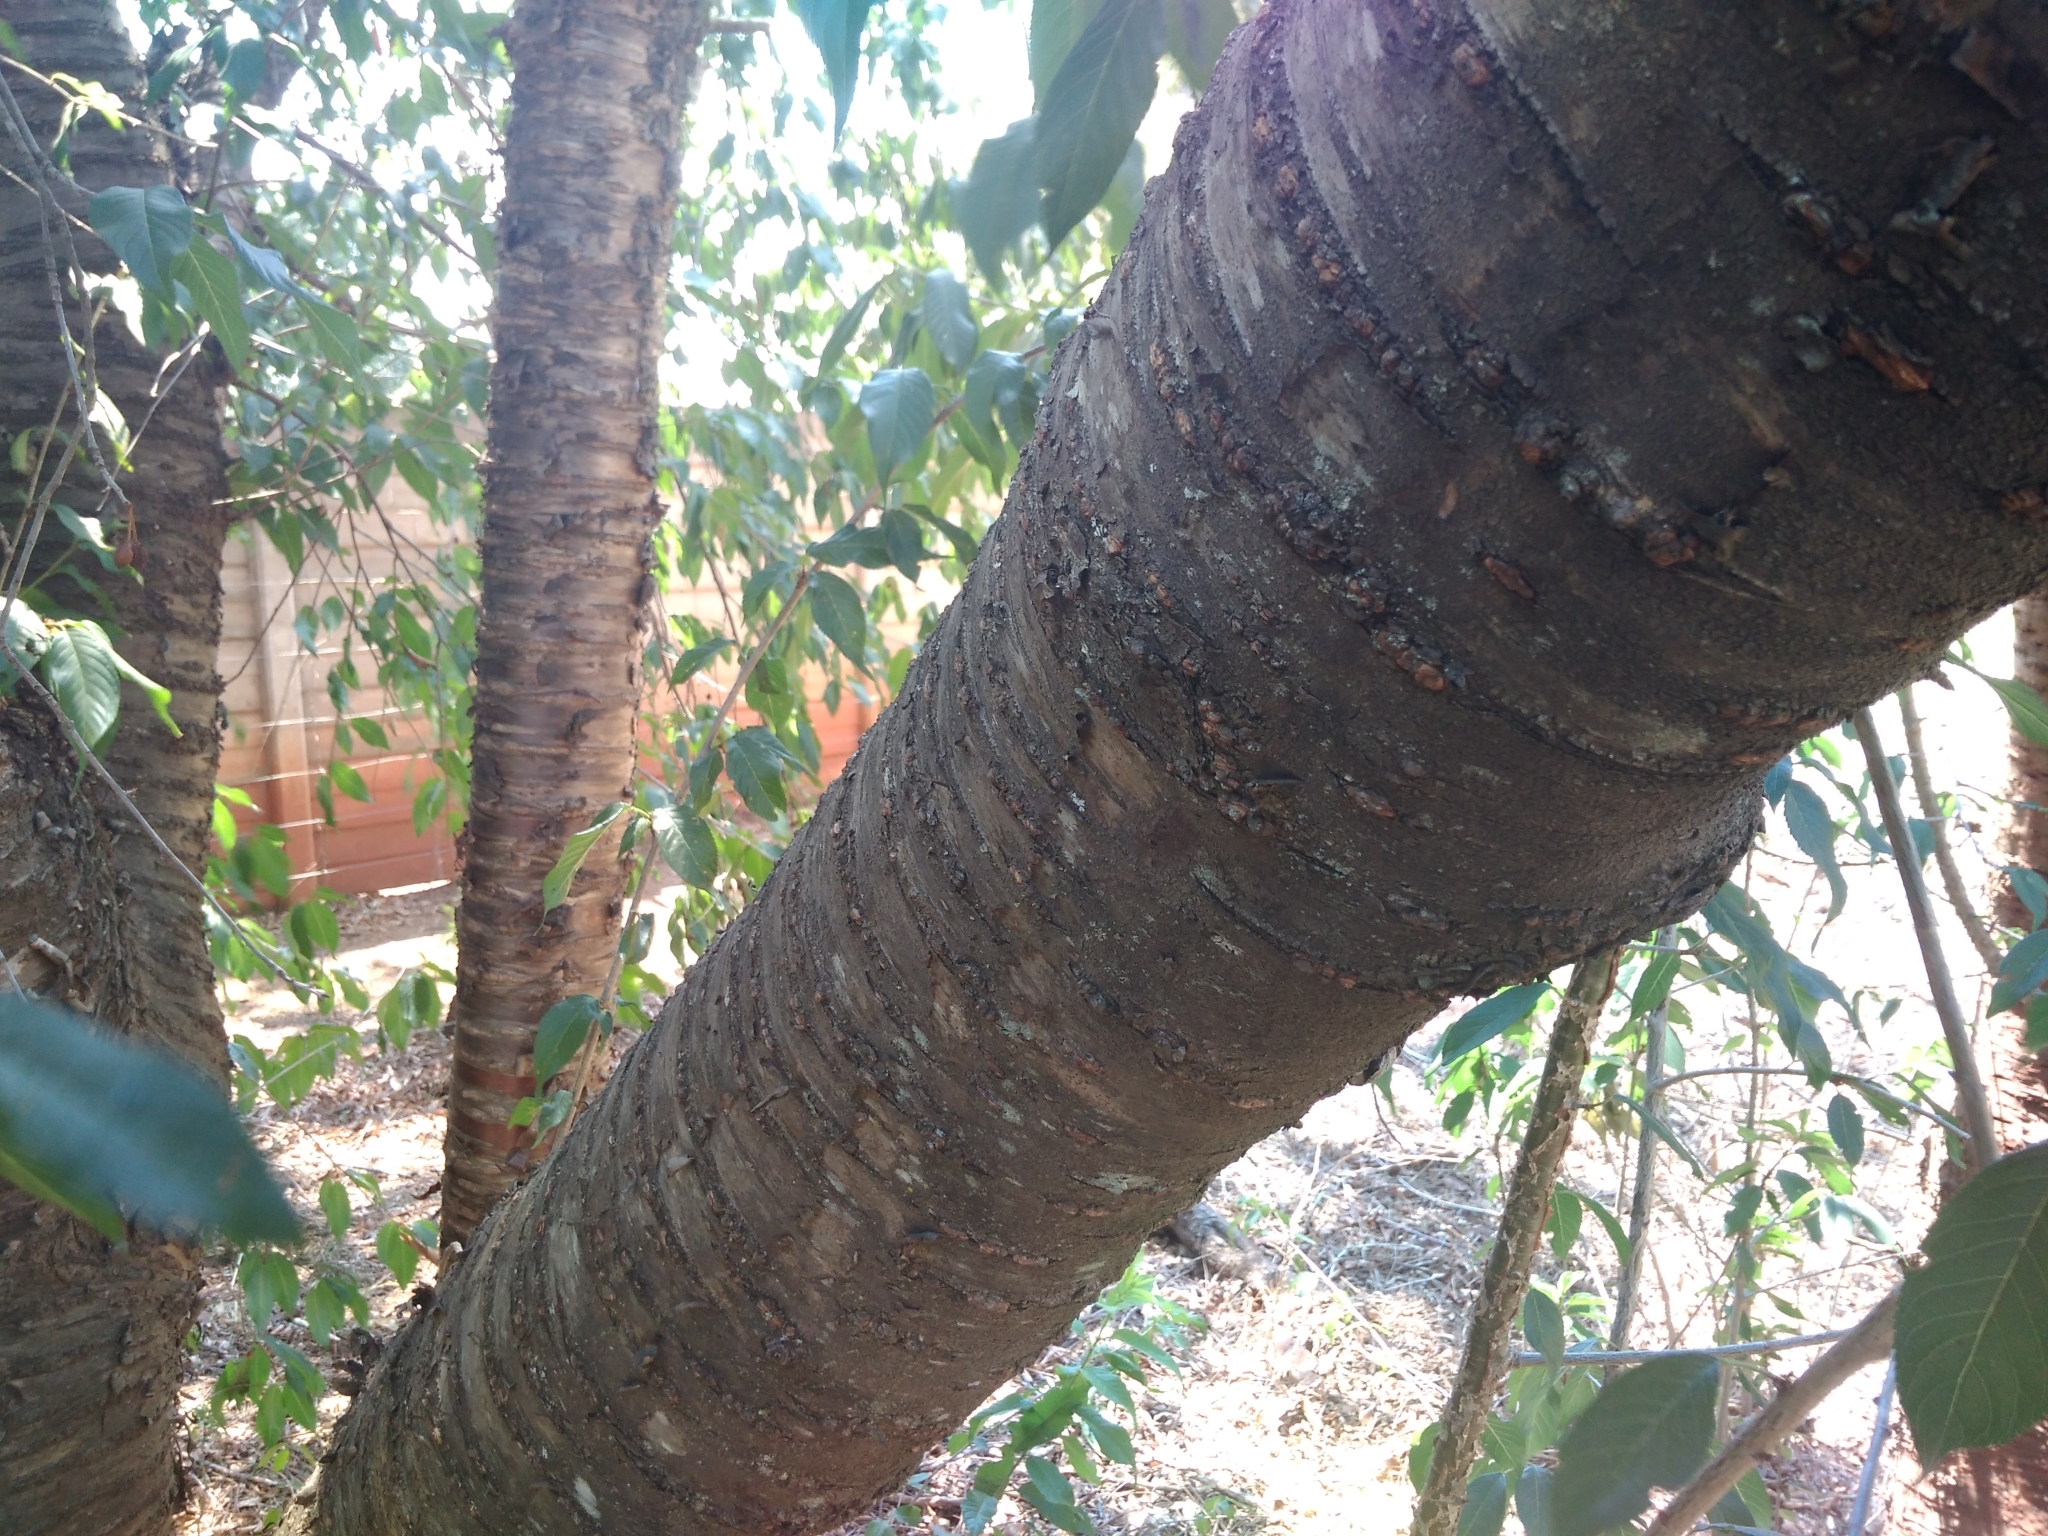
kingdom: Plantae
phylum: Tracheophyta
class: Magnoliopsida
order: Rosales
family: Rosaceae
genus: Prunus
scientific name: Prunus cerasoides
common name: Wild himalayan cherry
